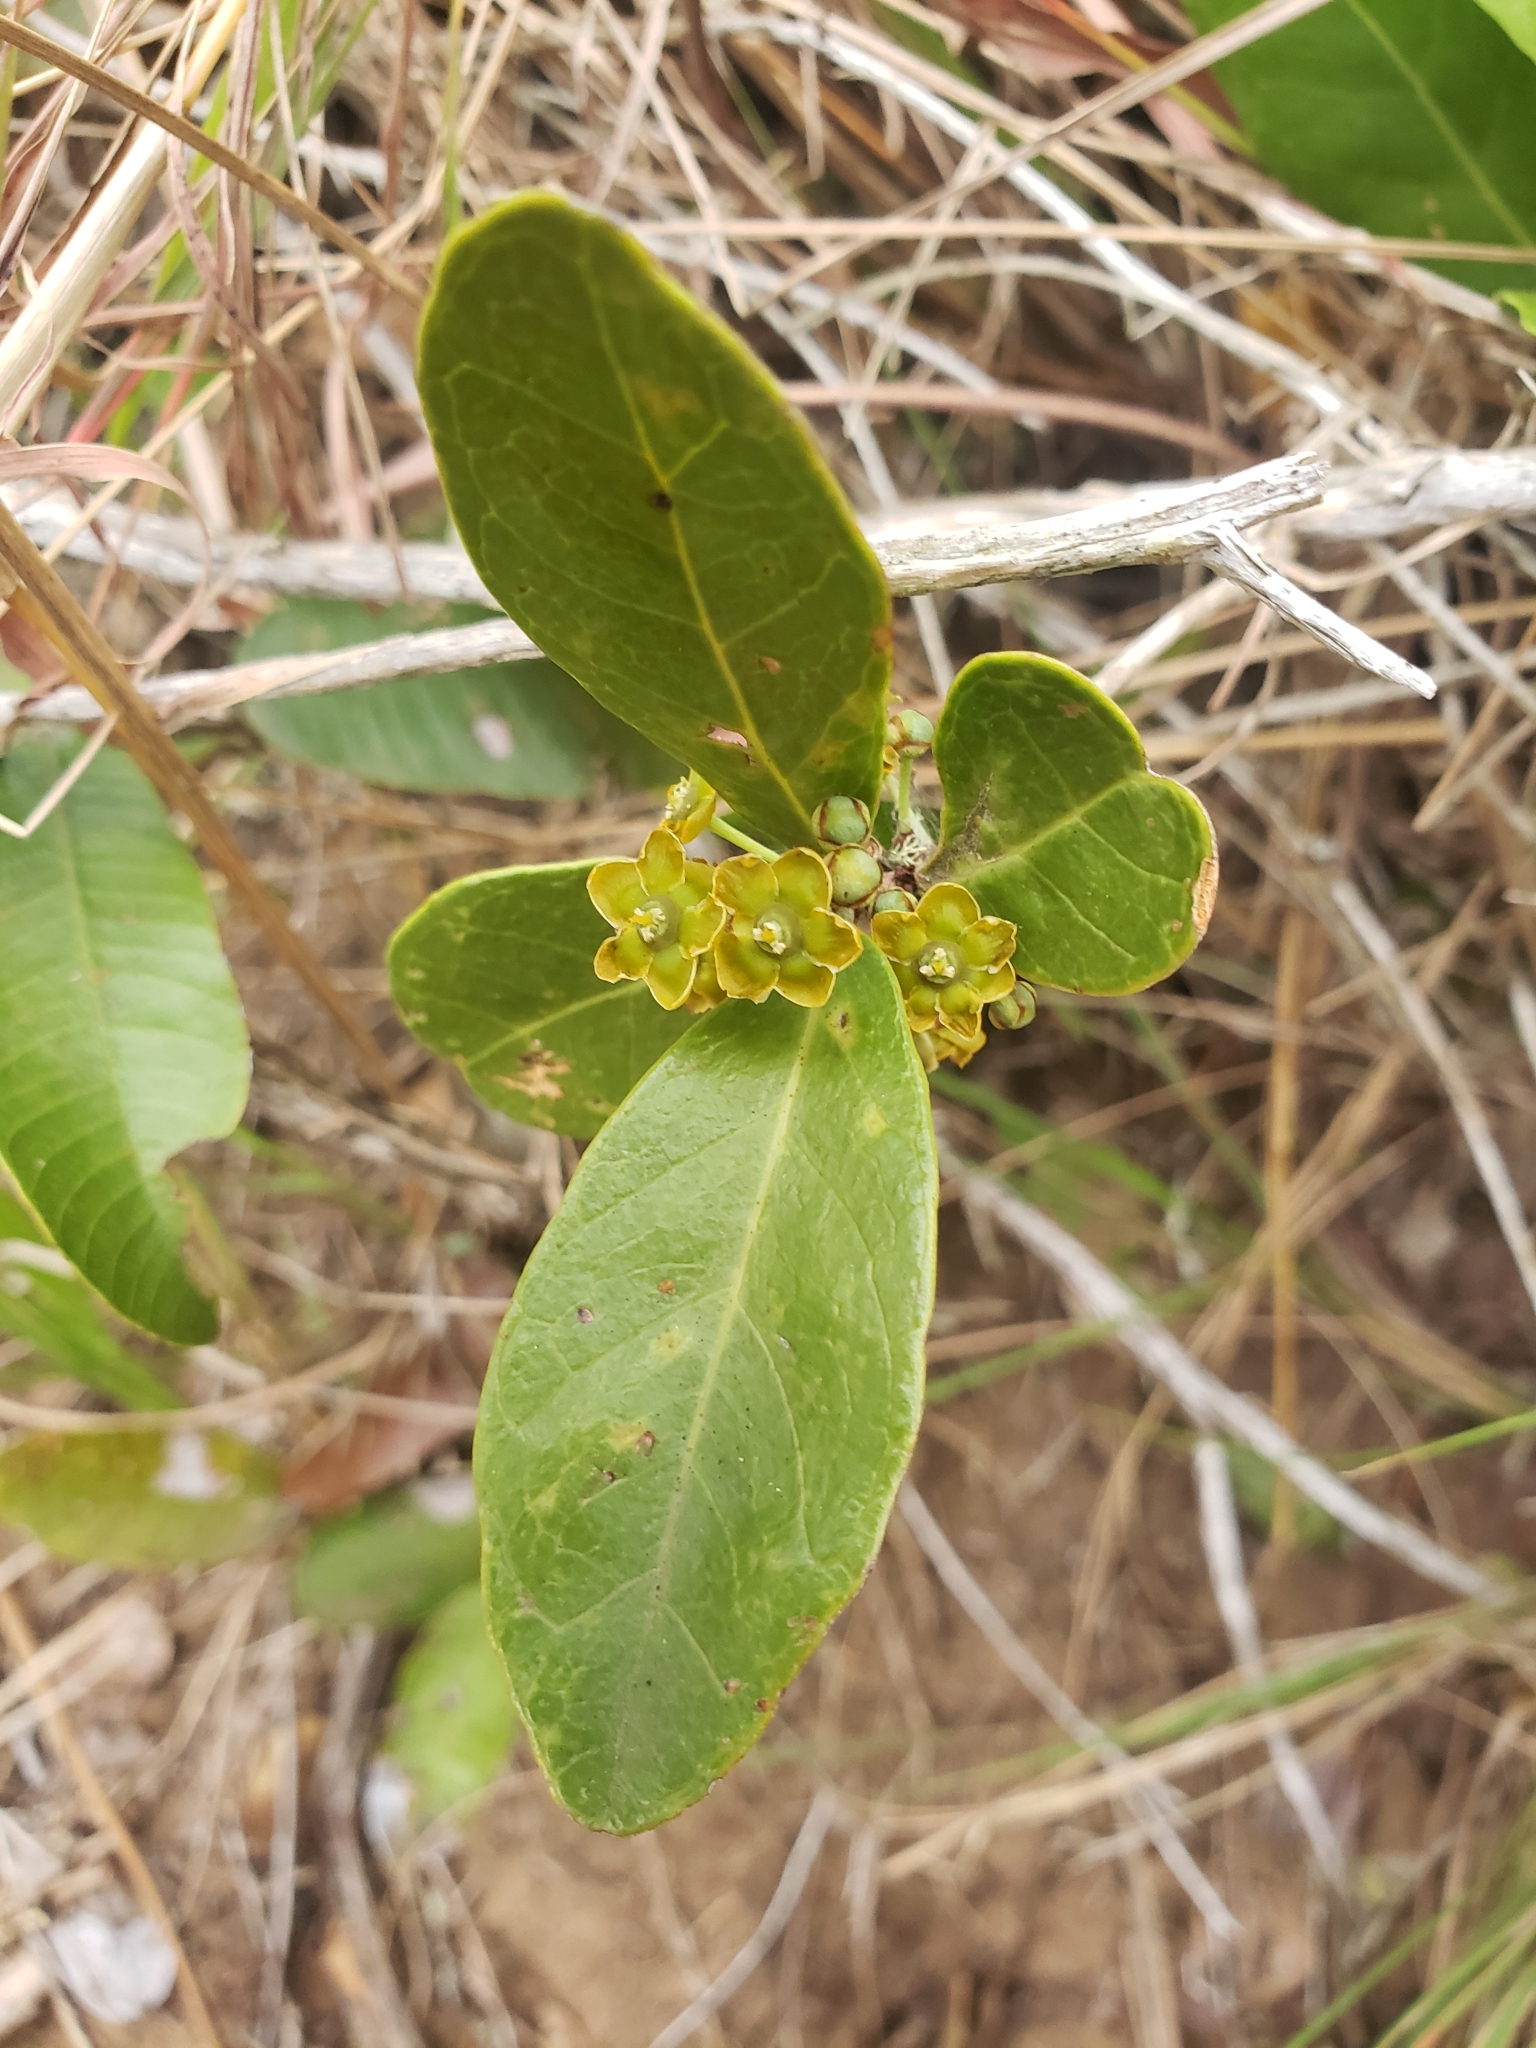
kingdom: Plantae
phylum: Tracheophyta
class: Magnoliopsida
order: Celastrales
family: Celastraceae
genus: Salacia
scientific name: Salacia kraussii
